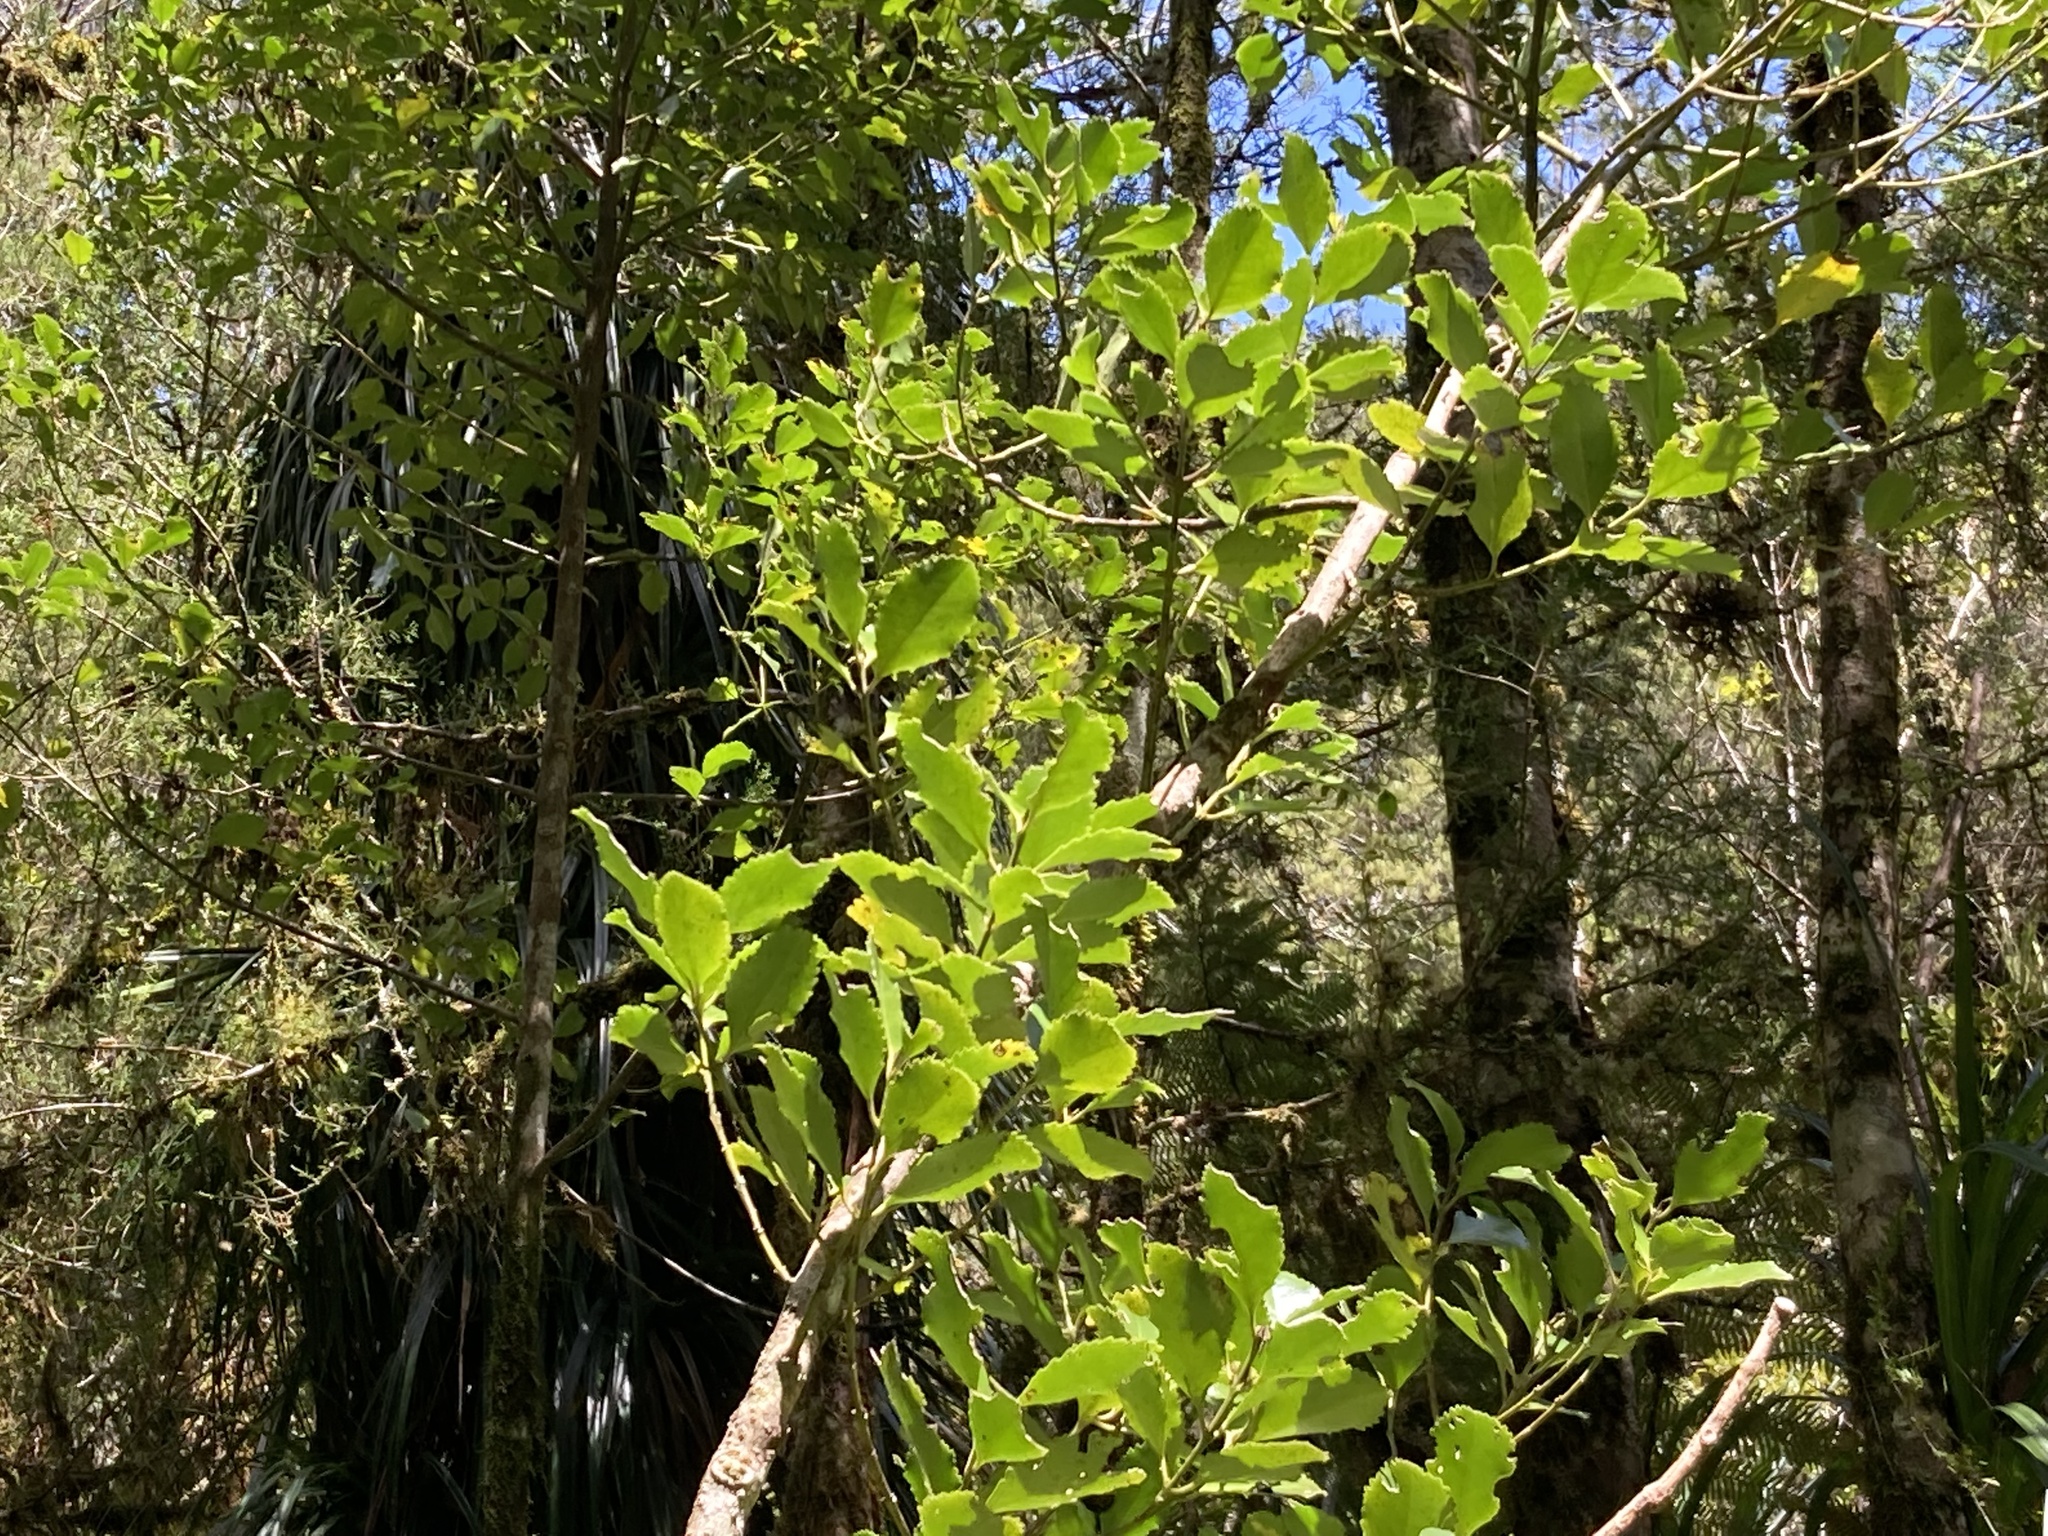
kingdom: Plantae
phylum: Tracheophyta
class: Magnoliopsida
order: Laurales
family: Atherospermataceae
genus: Laurelia
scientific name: Laurelia novae-zelandiae
